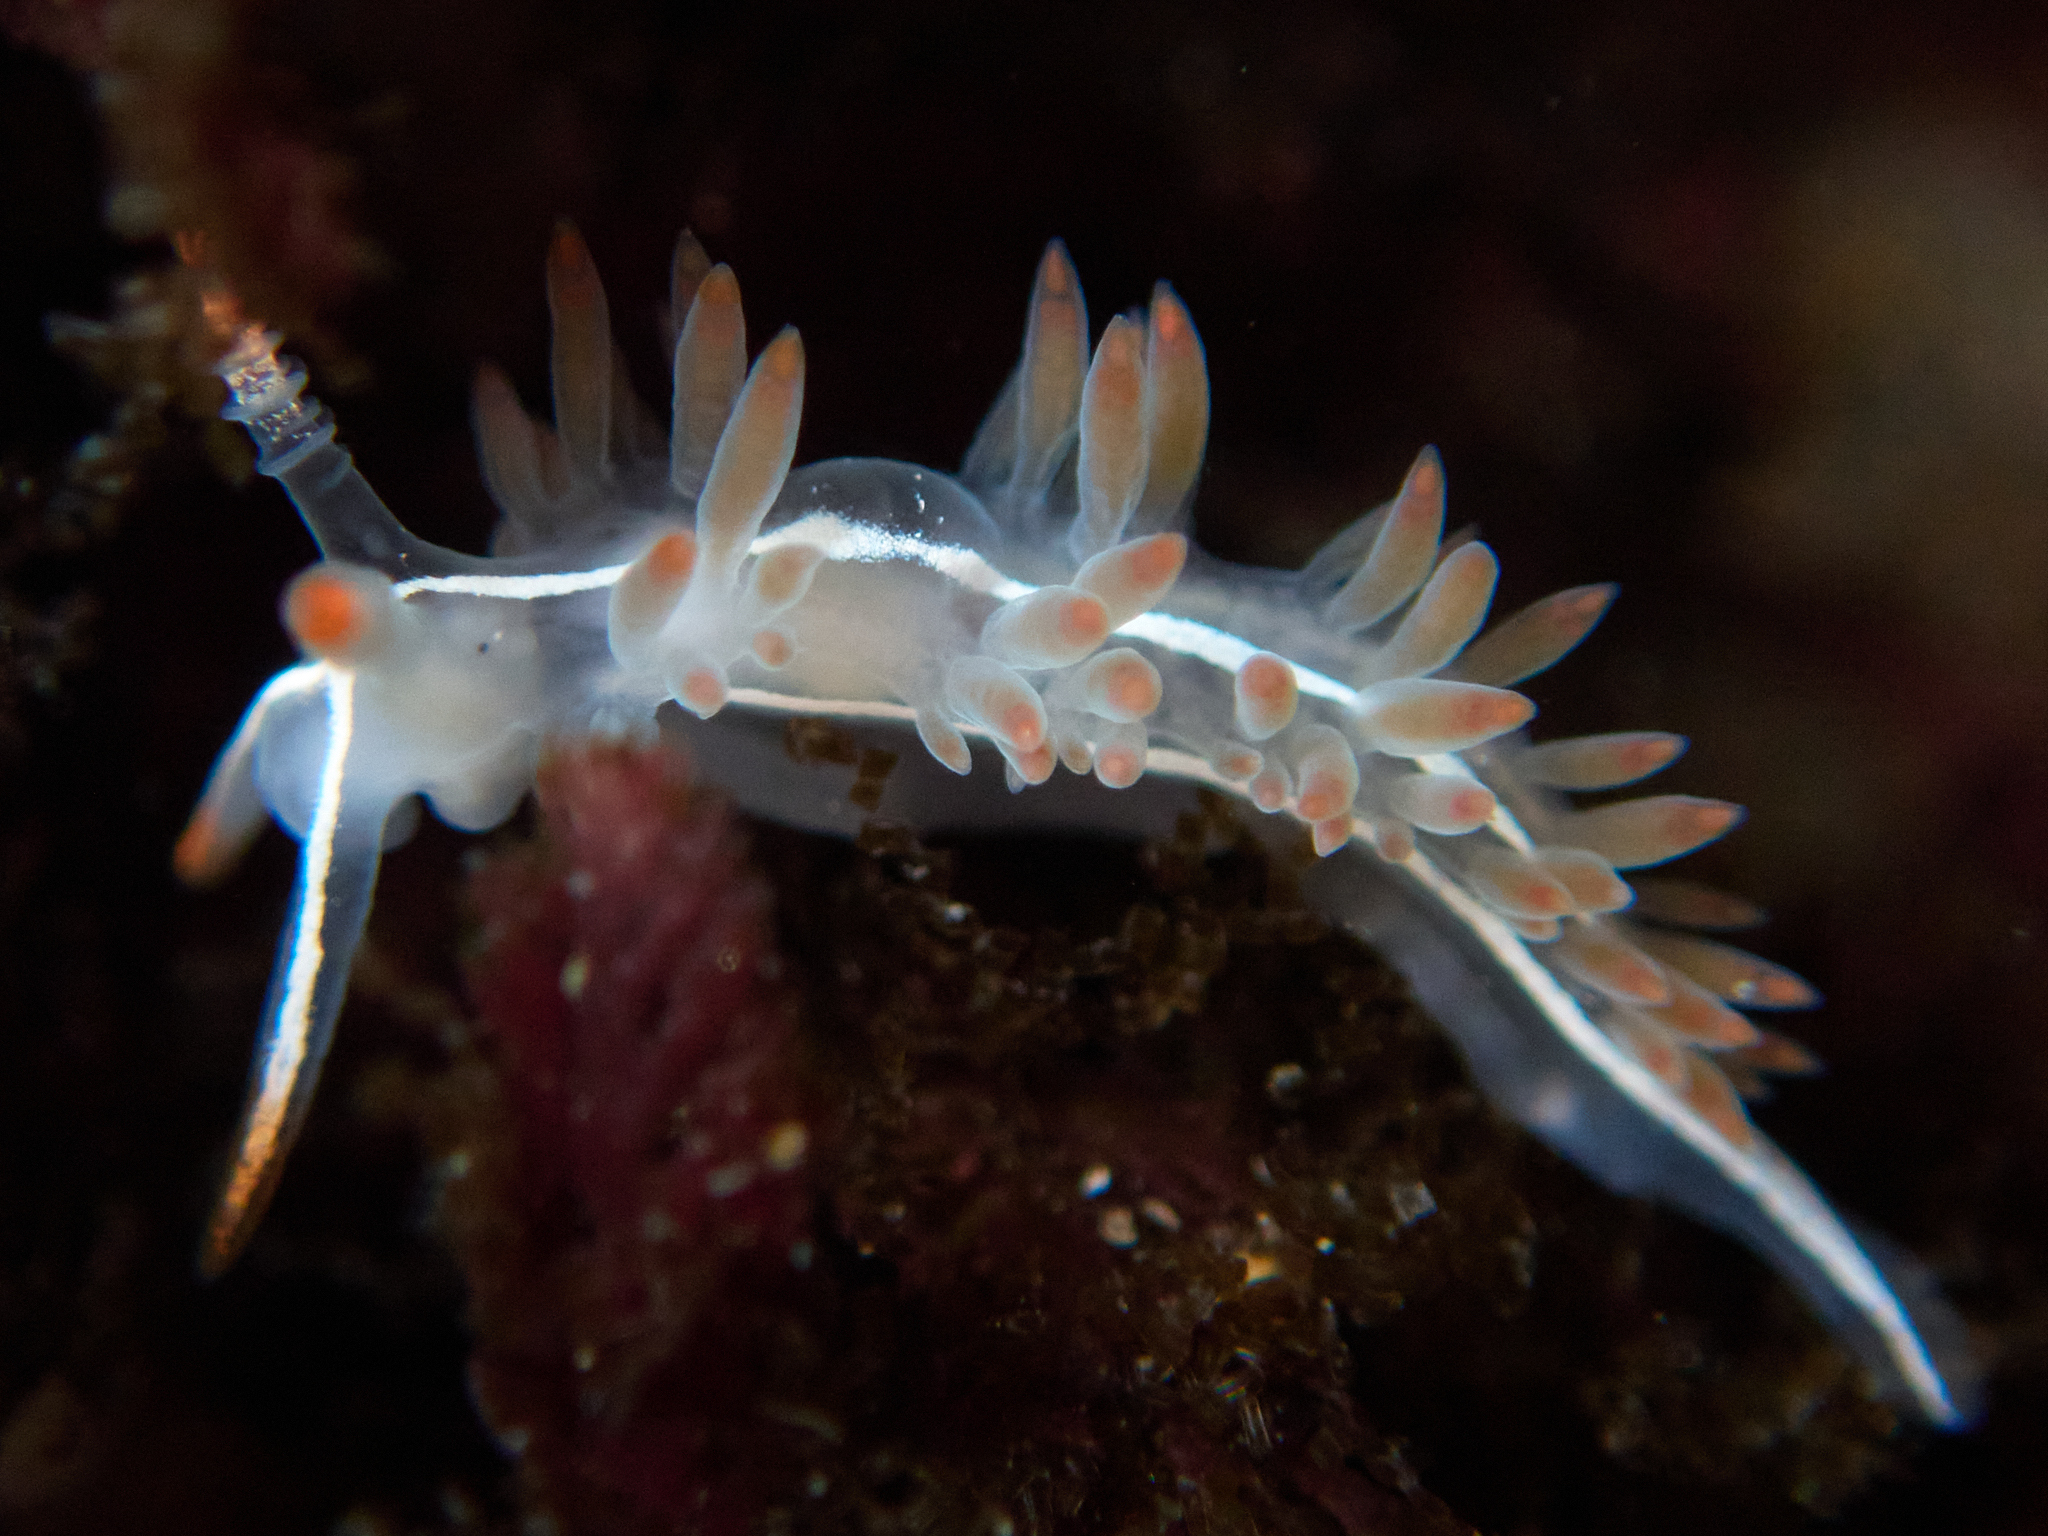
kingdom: Animalia
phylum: Mollusca
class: Gastropoda
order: Nudibranchia
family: Coryphellidae
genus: Coryphella
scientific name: Coryphella trilineata
